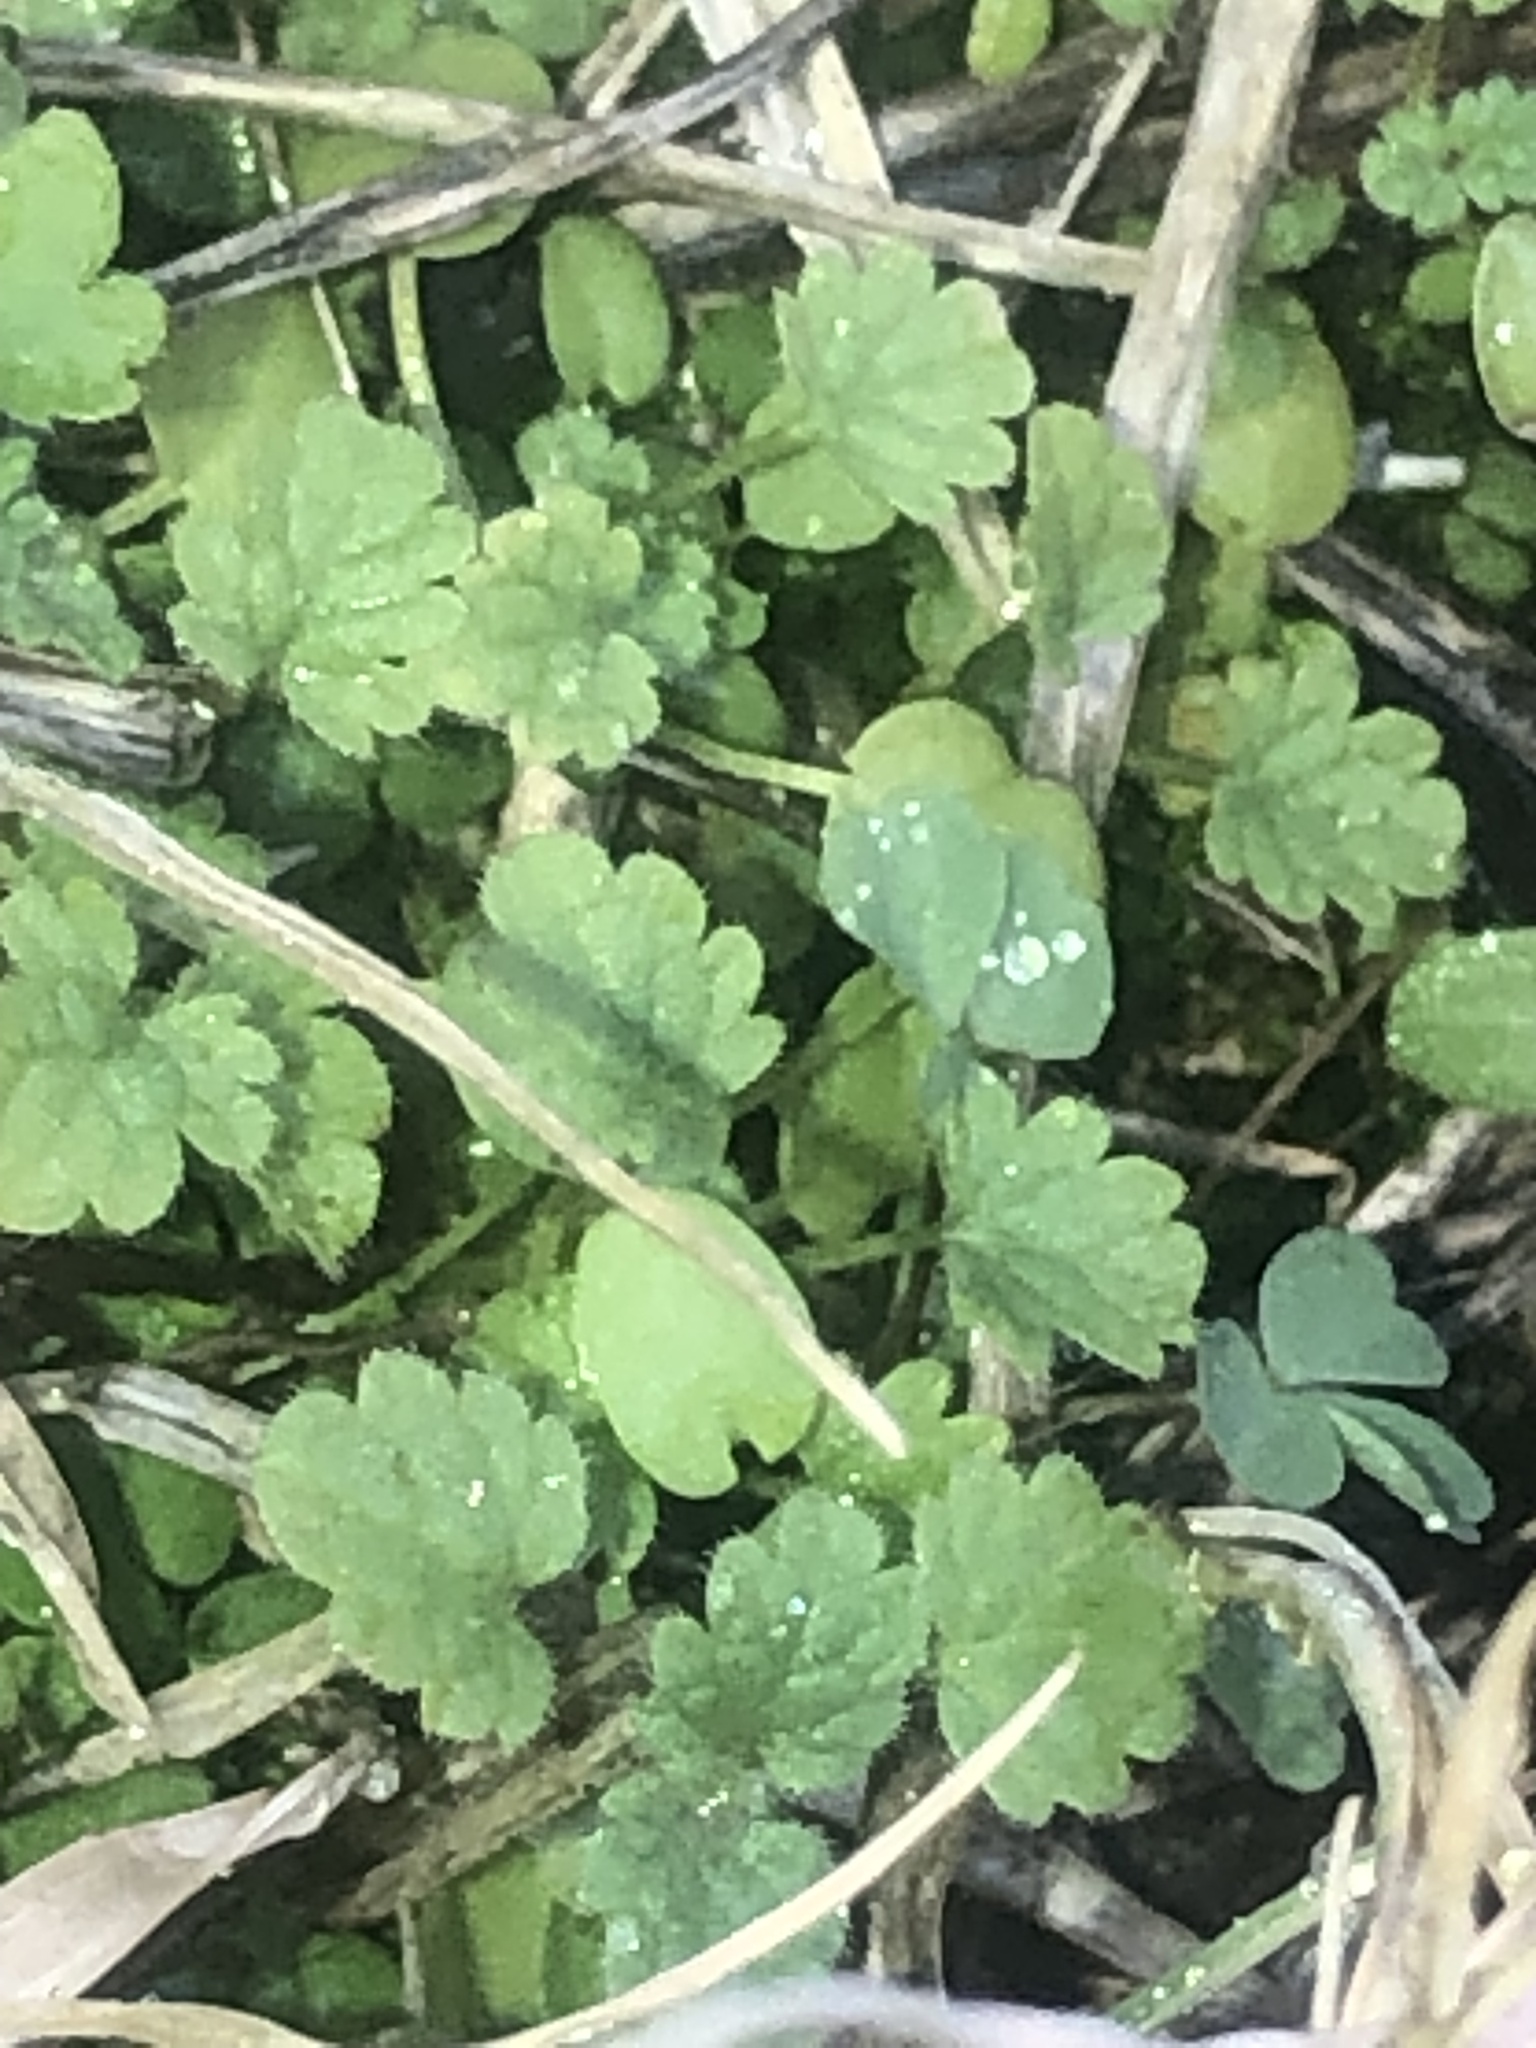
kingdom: Plantae
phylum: Tracheophyta
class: Magnoliopsida
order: Lamiales
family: Lamiaceae
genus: Lamium
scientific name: Lamium amplexicaule
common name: Henbit dead-nettle
